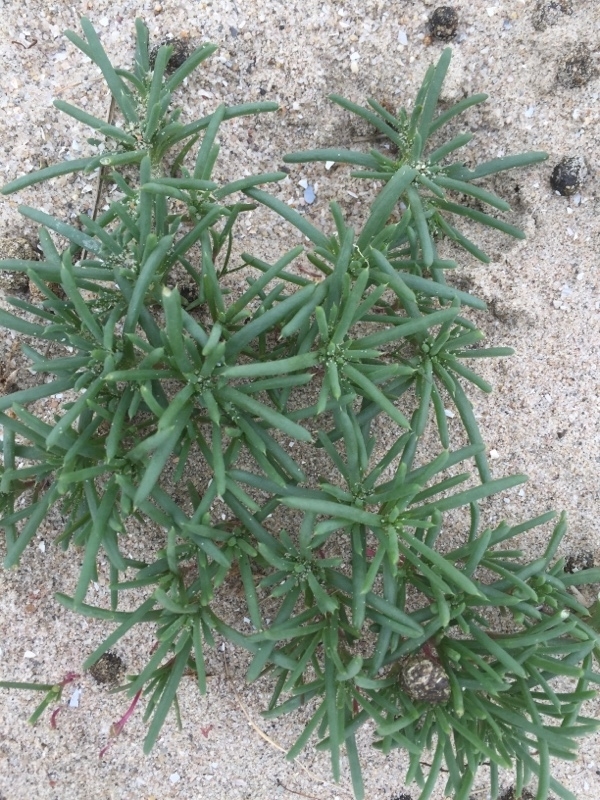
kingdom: Plantae
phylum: Tracheophyta
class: Magnoliopsida
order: Caryophyllales
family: Amaranthaceae
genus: Salsola
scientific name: Salsola kali
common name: Saltwort
